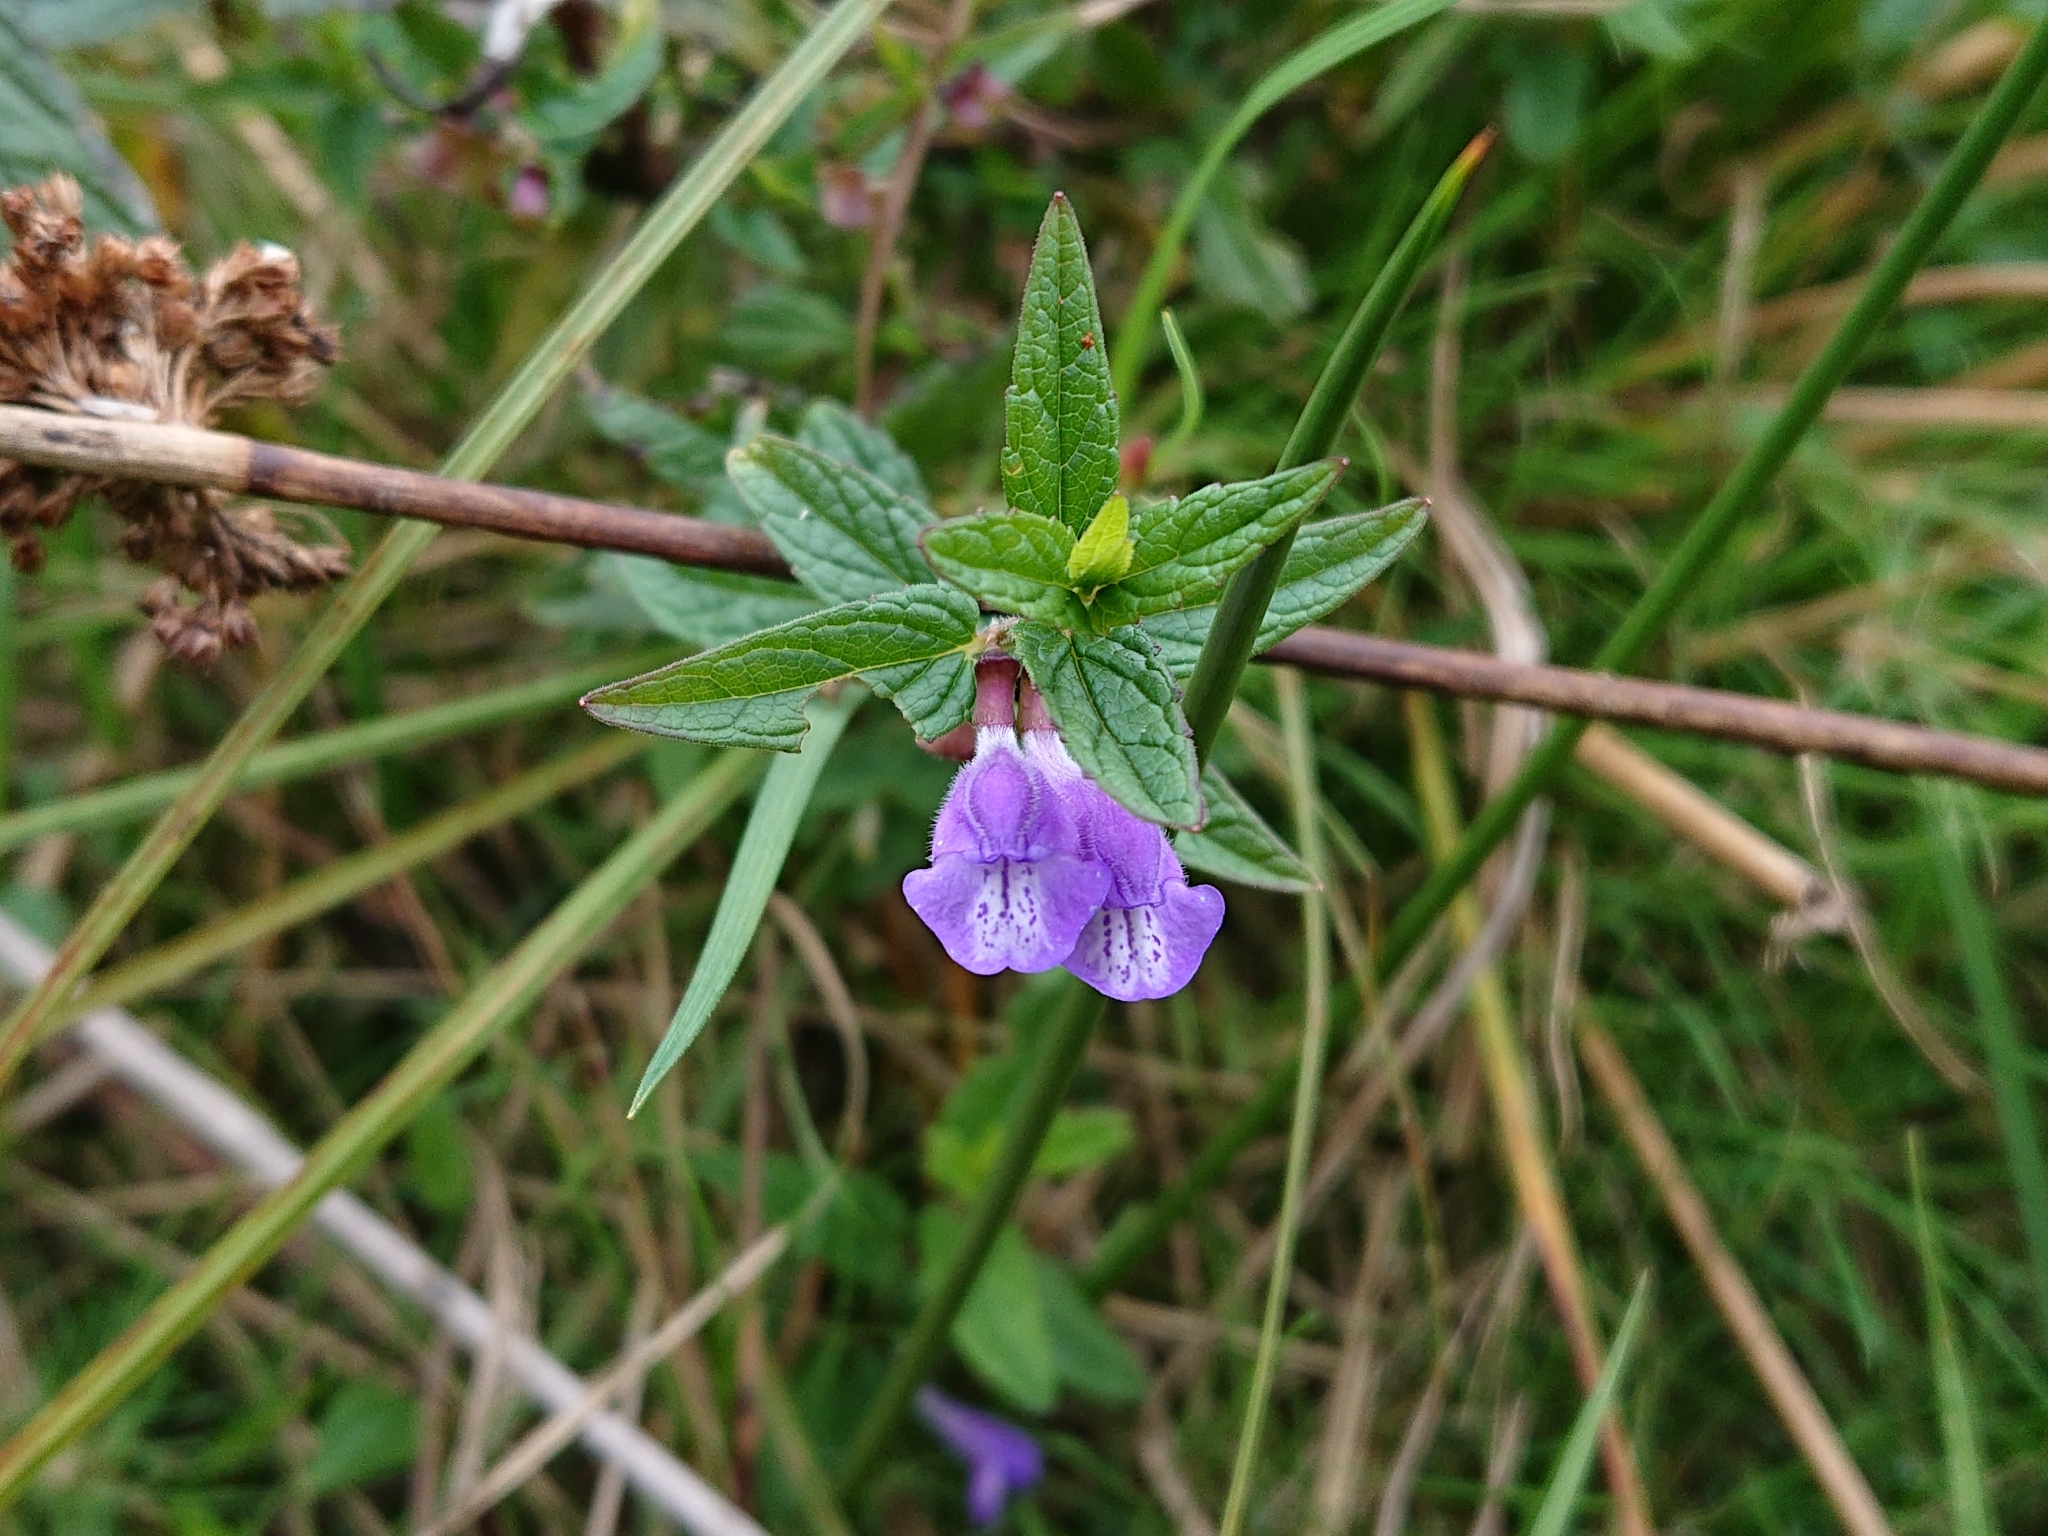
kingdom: Plantae
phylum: Tracheophyta
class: Magnoliopsida
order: Lamiales
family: Lamiaceae
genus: Scutellaria
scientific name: Scutellaria galericulata
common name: Skullcap
